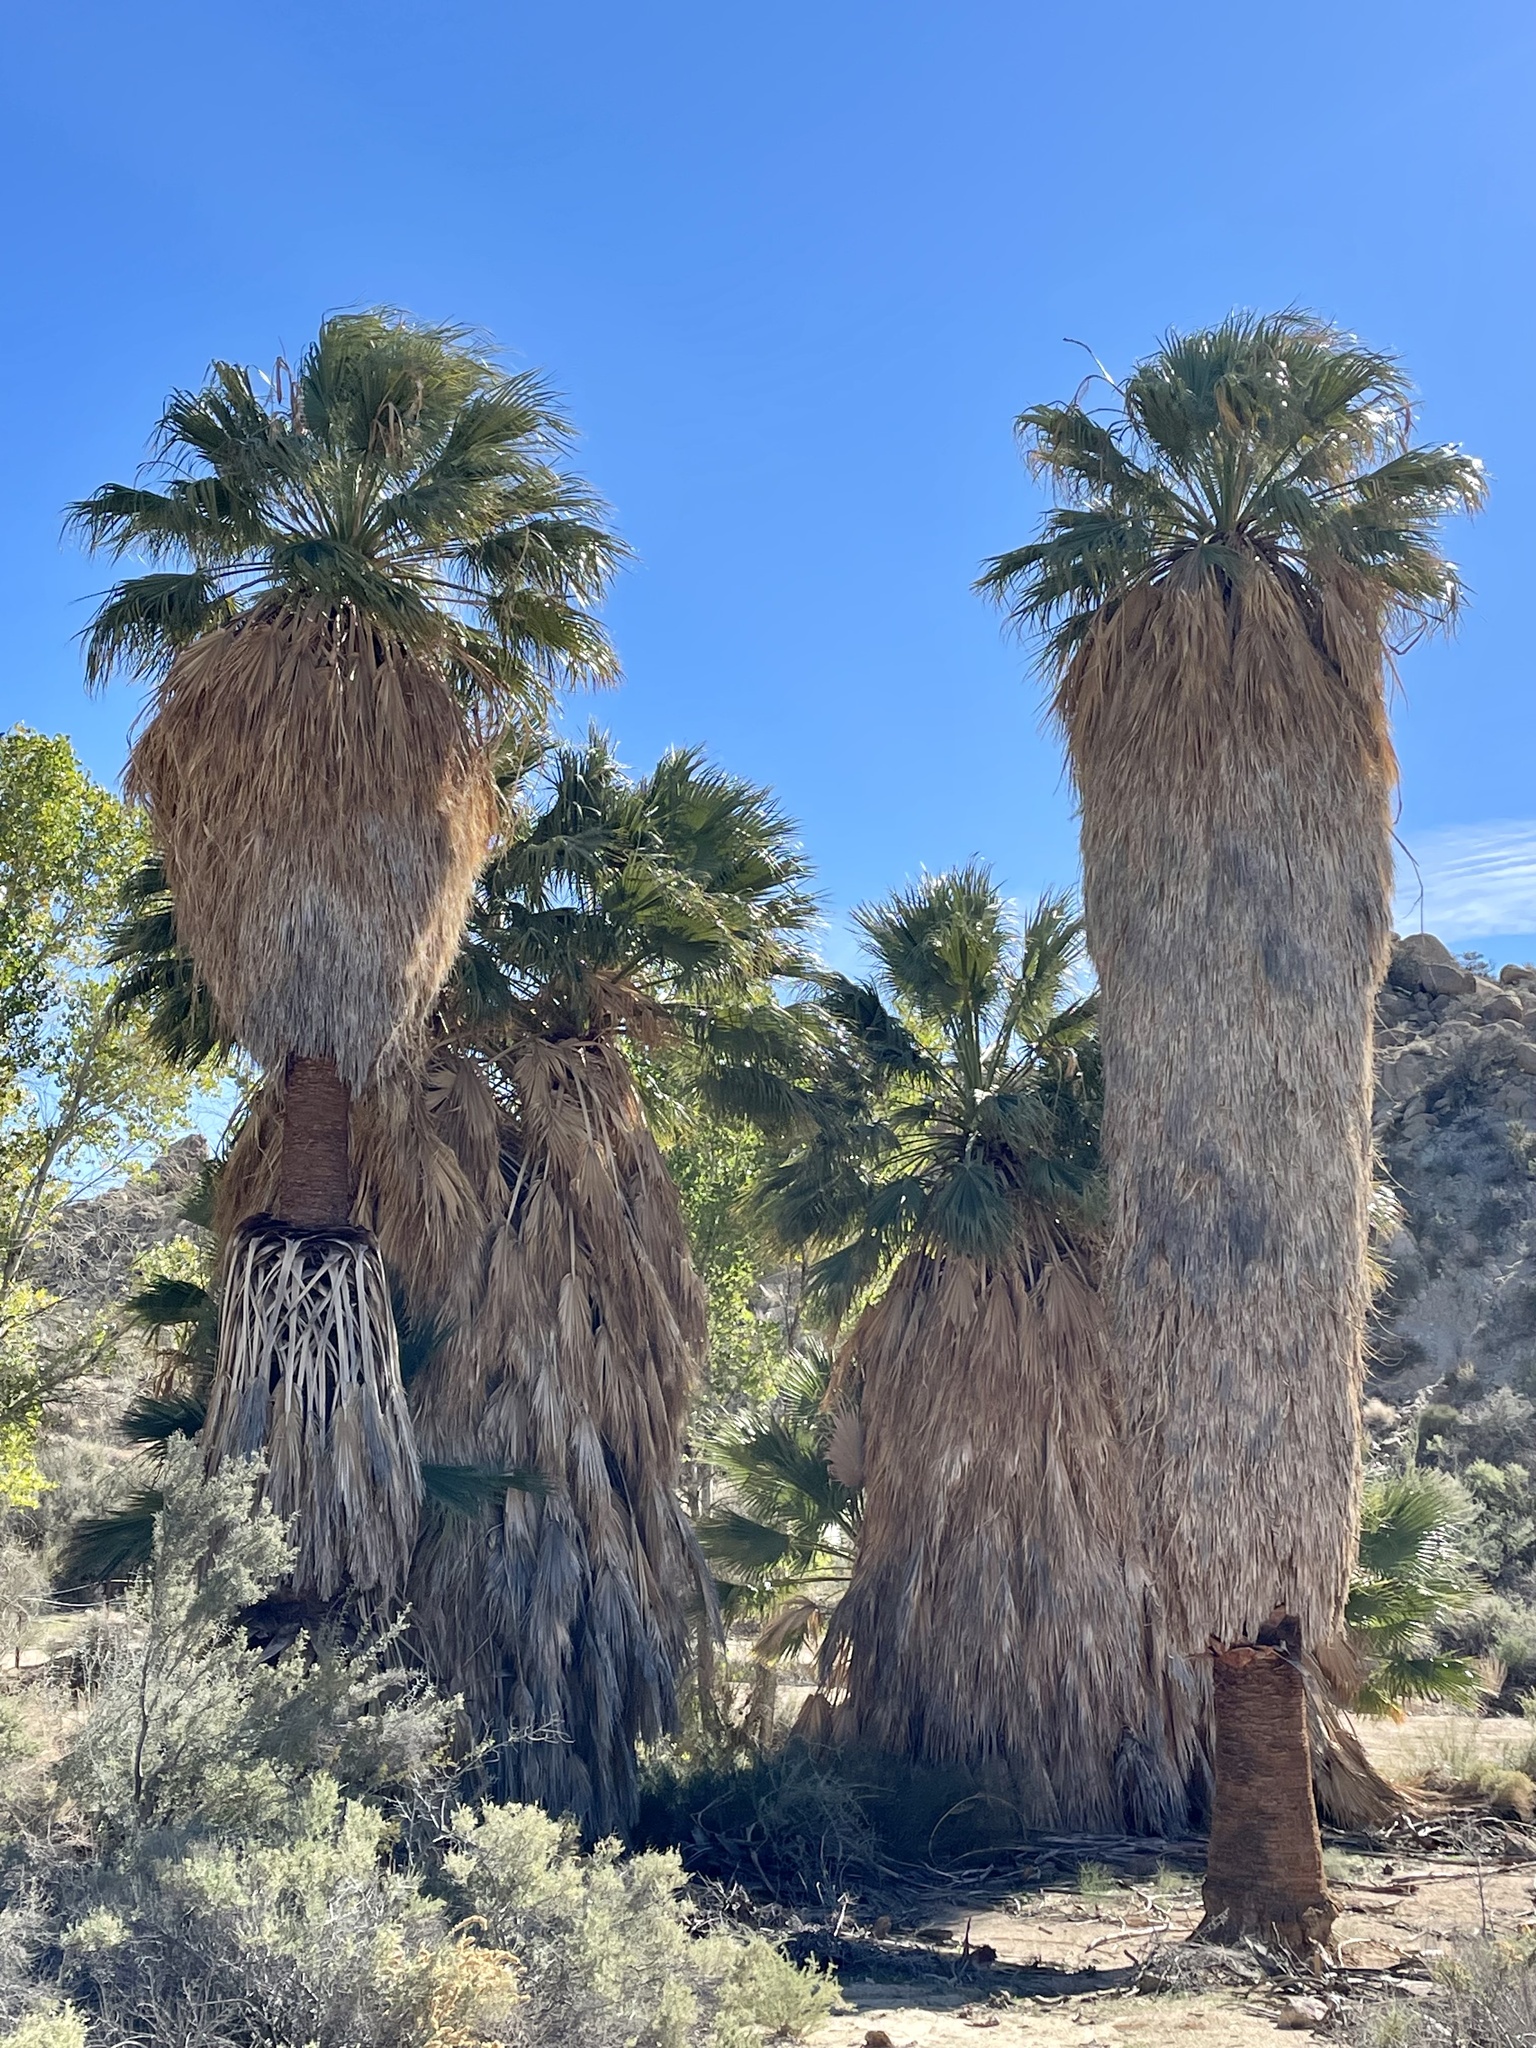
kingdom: Plantae
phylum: Tracheophyta
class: Liliopsida
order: Arecales
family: Arecaceae
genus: Washingtonia
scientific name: Washingtonia filifera
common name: California fan palm
